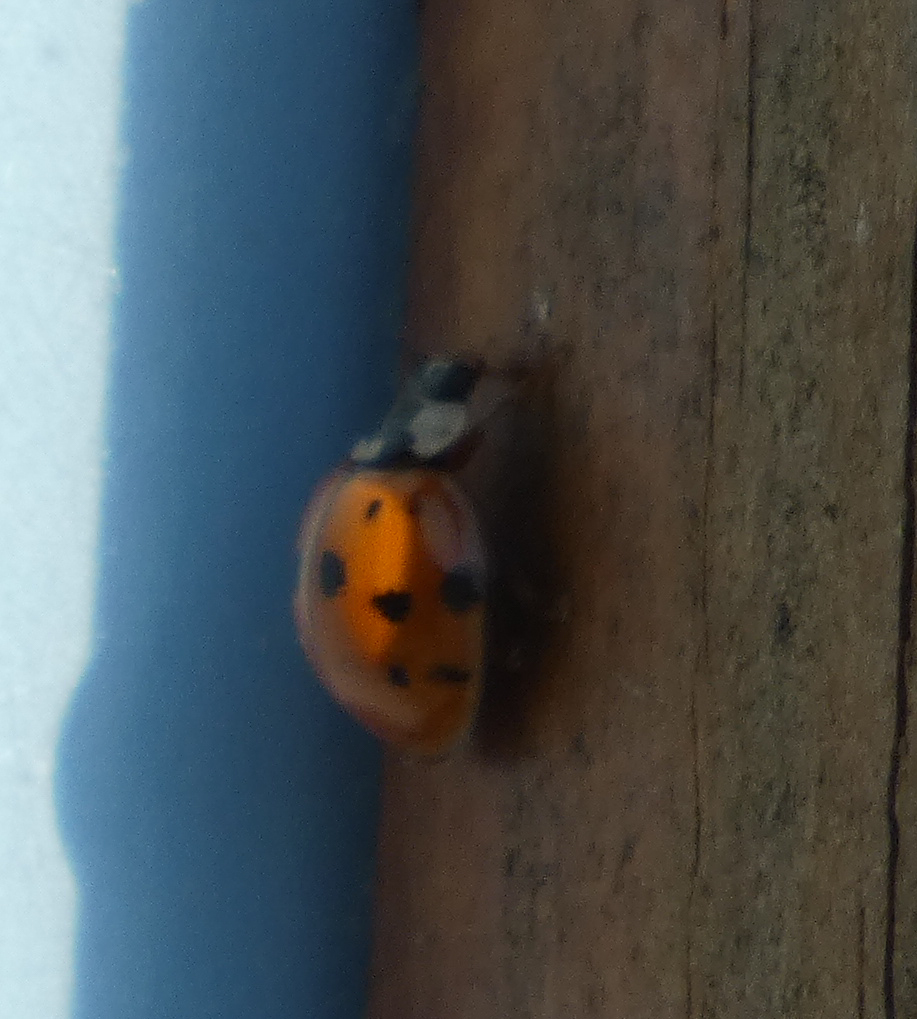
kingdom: Animalia
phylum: Arthropoda
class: Insecta
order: Coleoptera
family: Coccinellidae
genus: Harmonia
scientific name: Harmonia axyridis
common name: Harlequin ladybird
